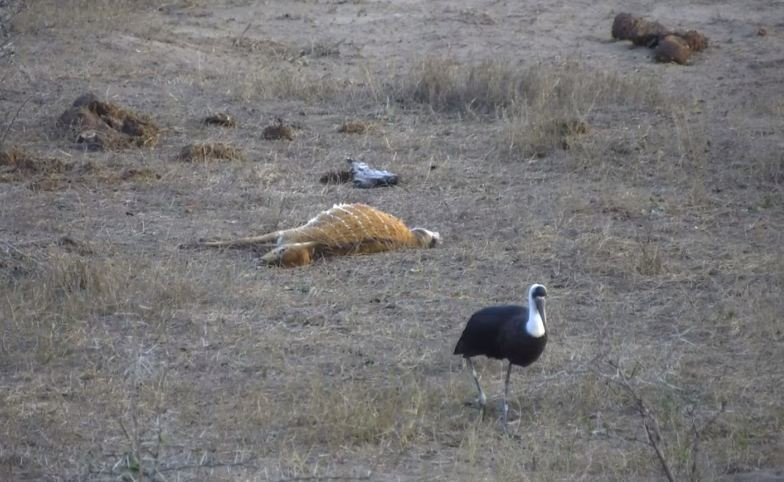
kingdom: Animalia
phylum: Chordata
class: Aves
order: Ciconiiformes
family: Ciconiidae
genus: Ciconia
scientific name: Ciconia microscelis
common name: African woollyneck
